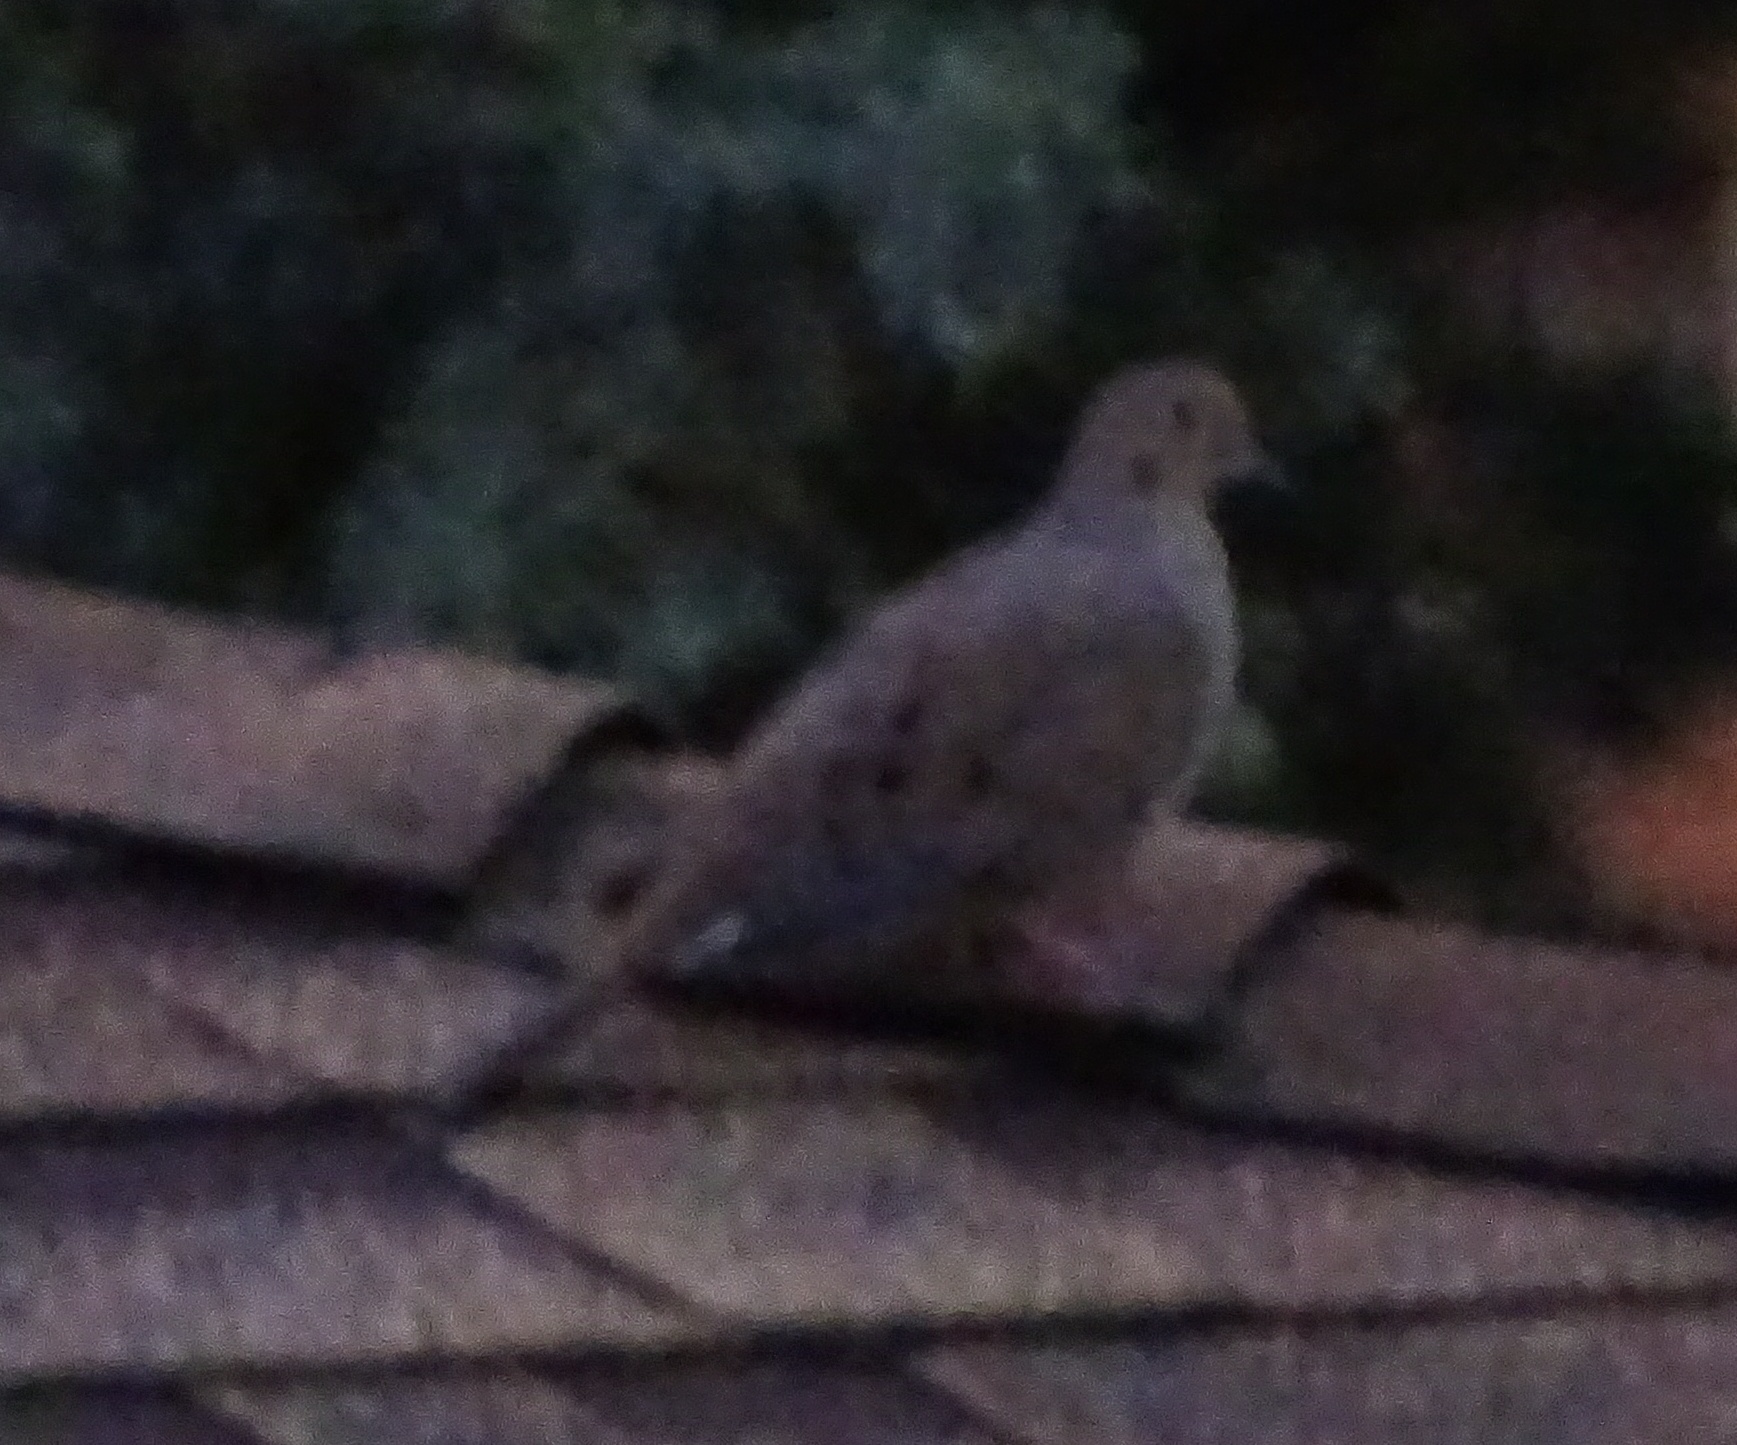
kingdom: Animalia
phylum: Chordata
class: Aves
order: Columbiformes
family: Columbidae
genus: Zenaida
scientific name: Zenaida macroura
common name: Mourning dove
